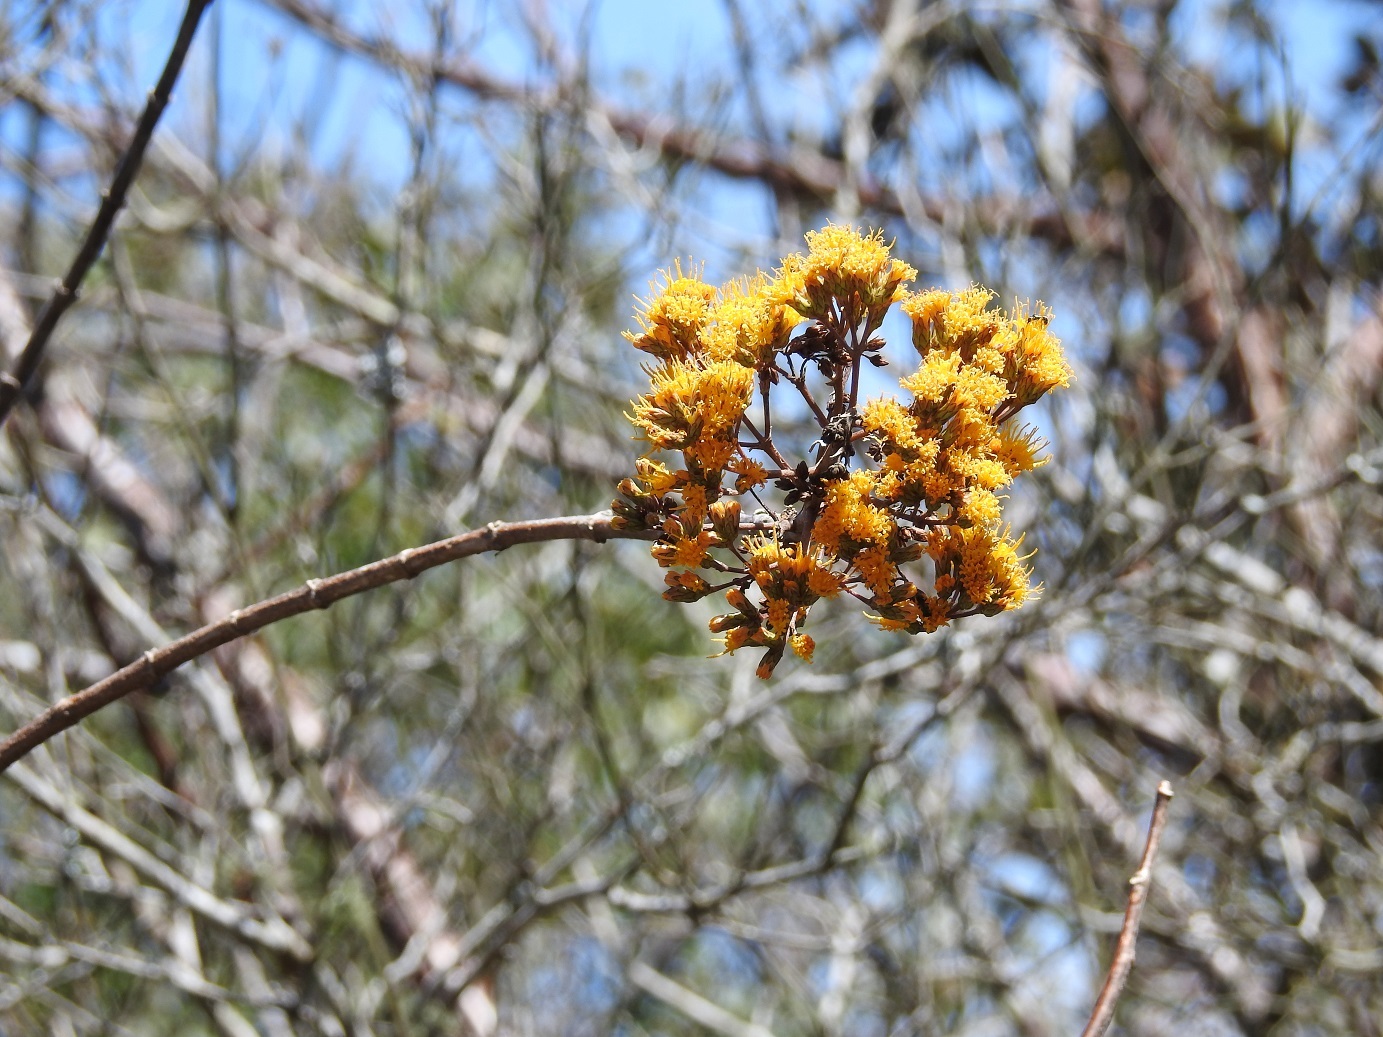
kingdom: Plantae
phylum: Tracheophyta
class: Magnoliopsida
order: Asterales
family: Asteraceae
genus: Sinclairia
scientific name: Sinclairia vagans
